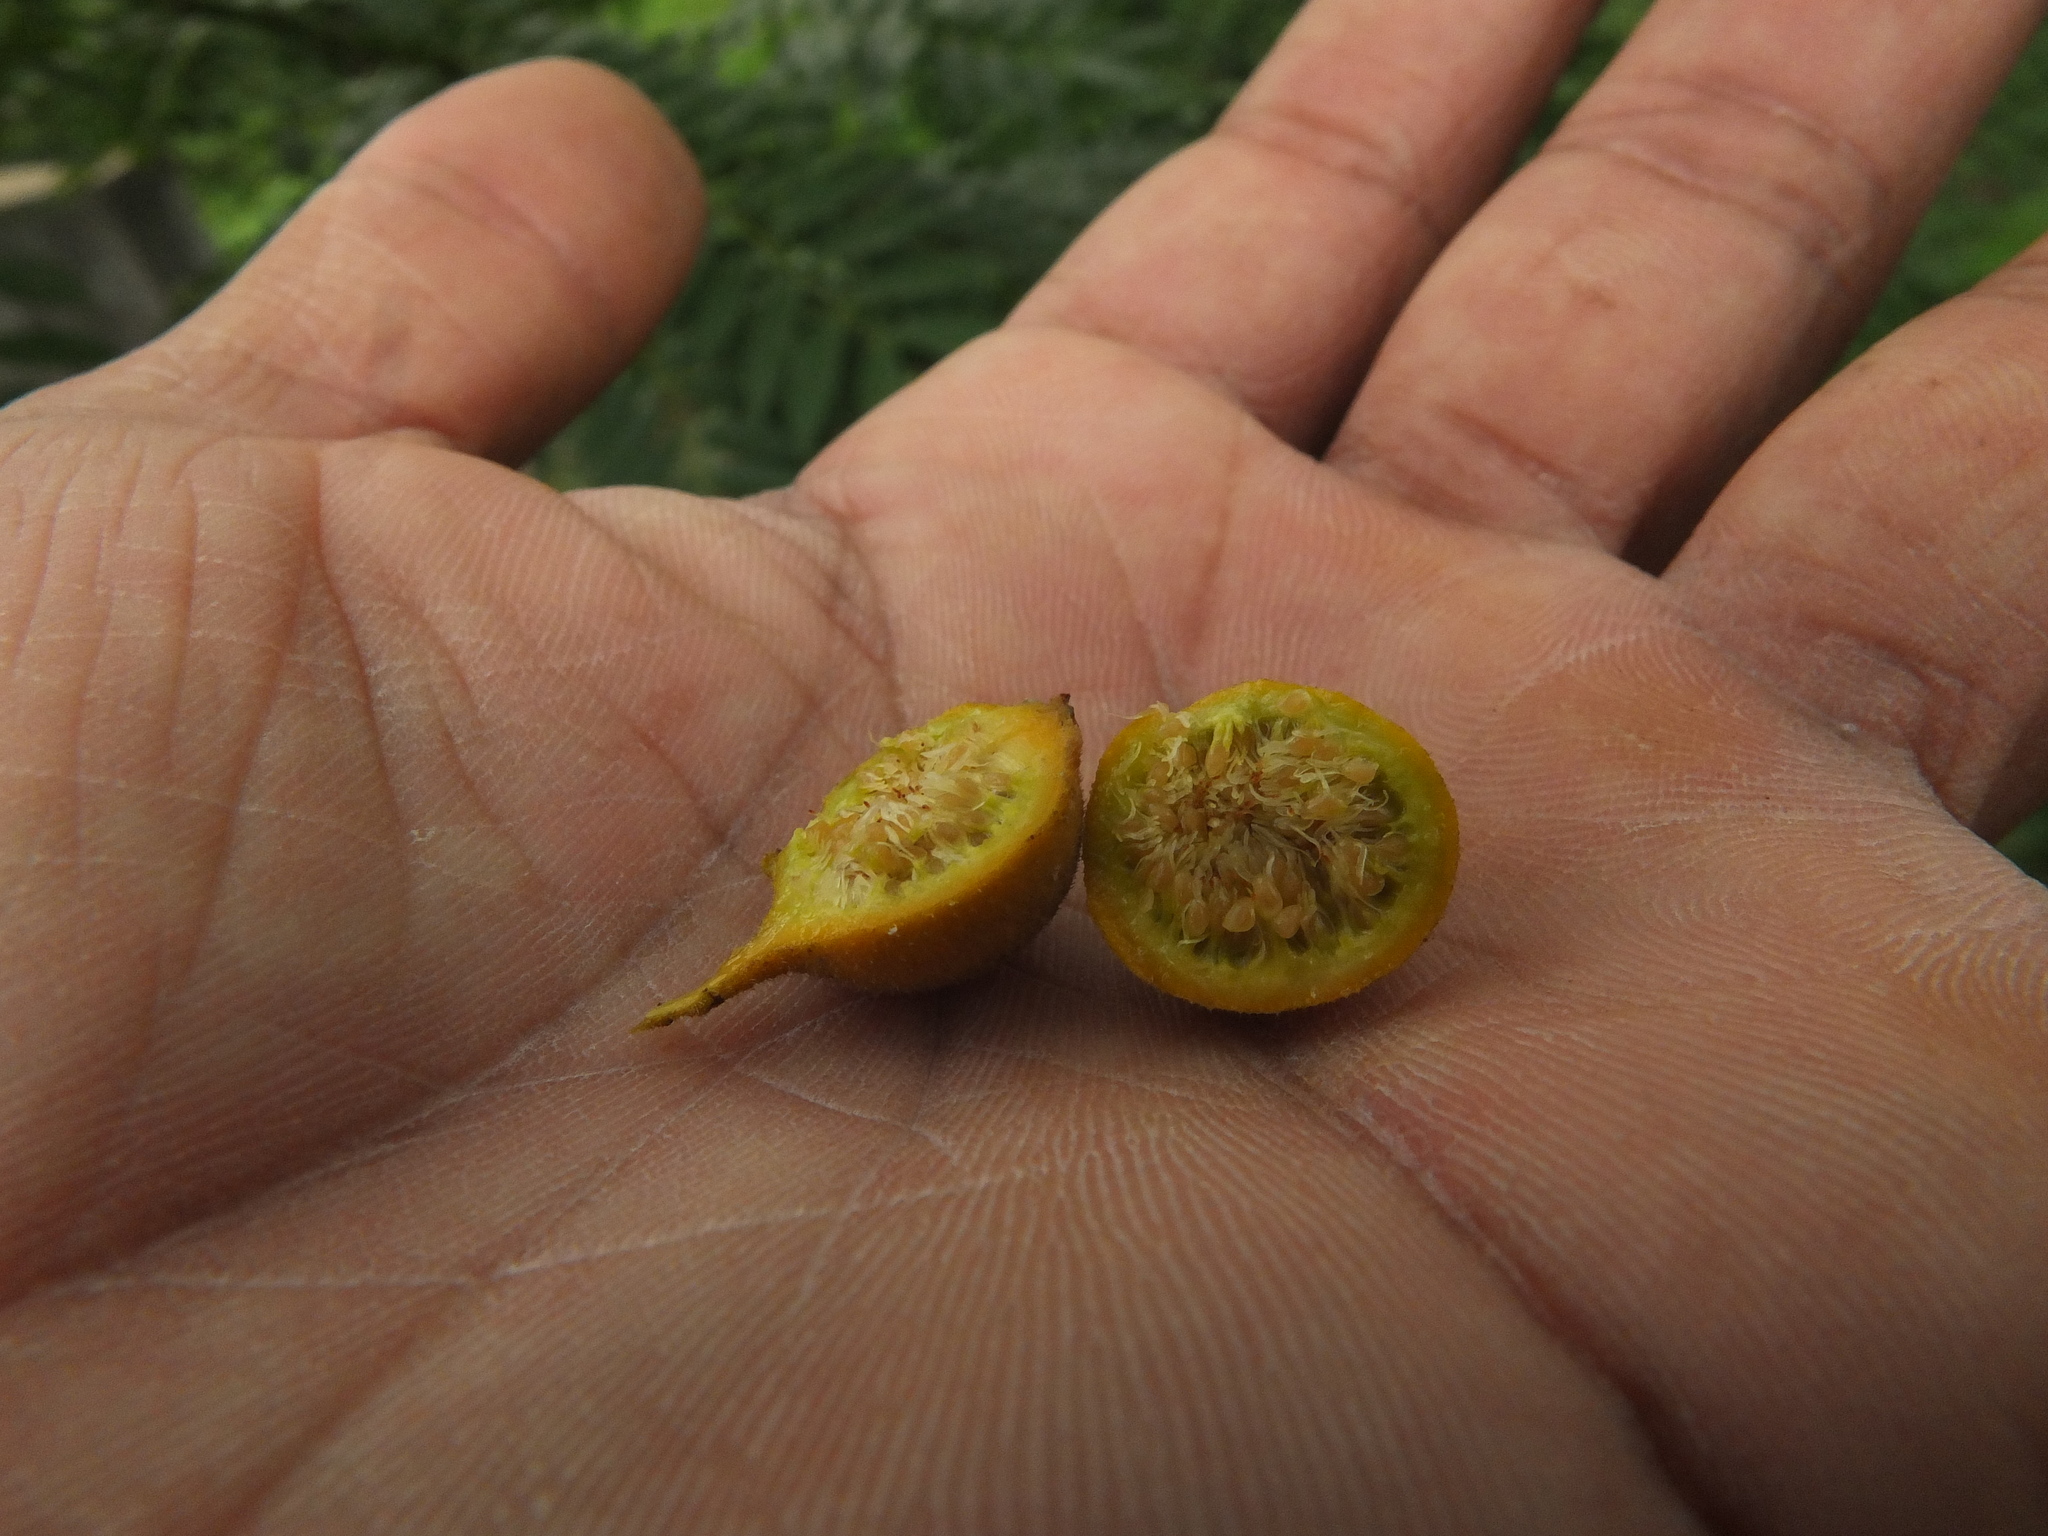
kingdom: Plantae
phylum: Tracheophyta
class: Magnoliopsida
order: Rosales
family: Moraceae
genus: Ficus
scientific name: Ficus exasperata
